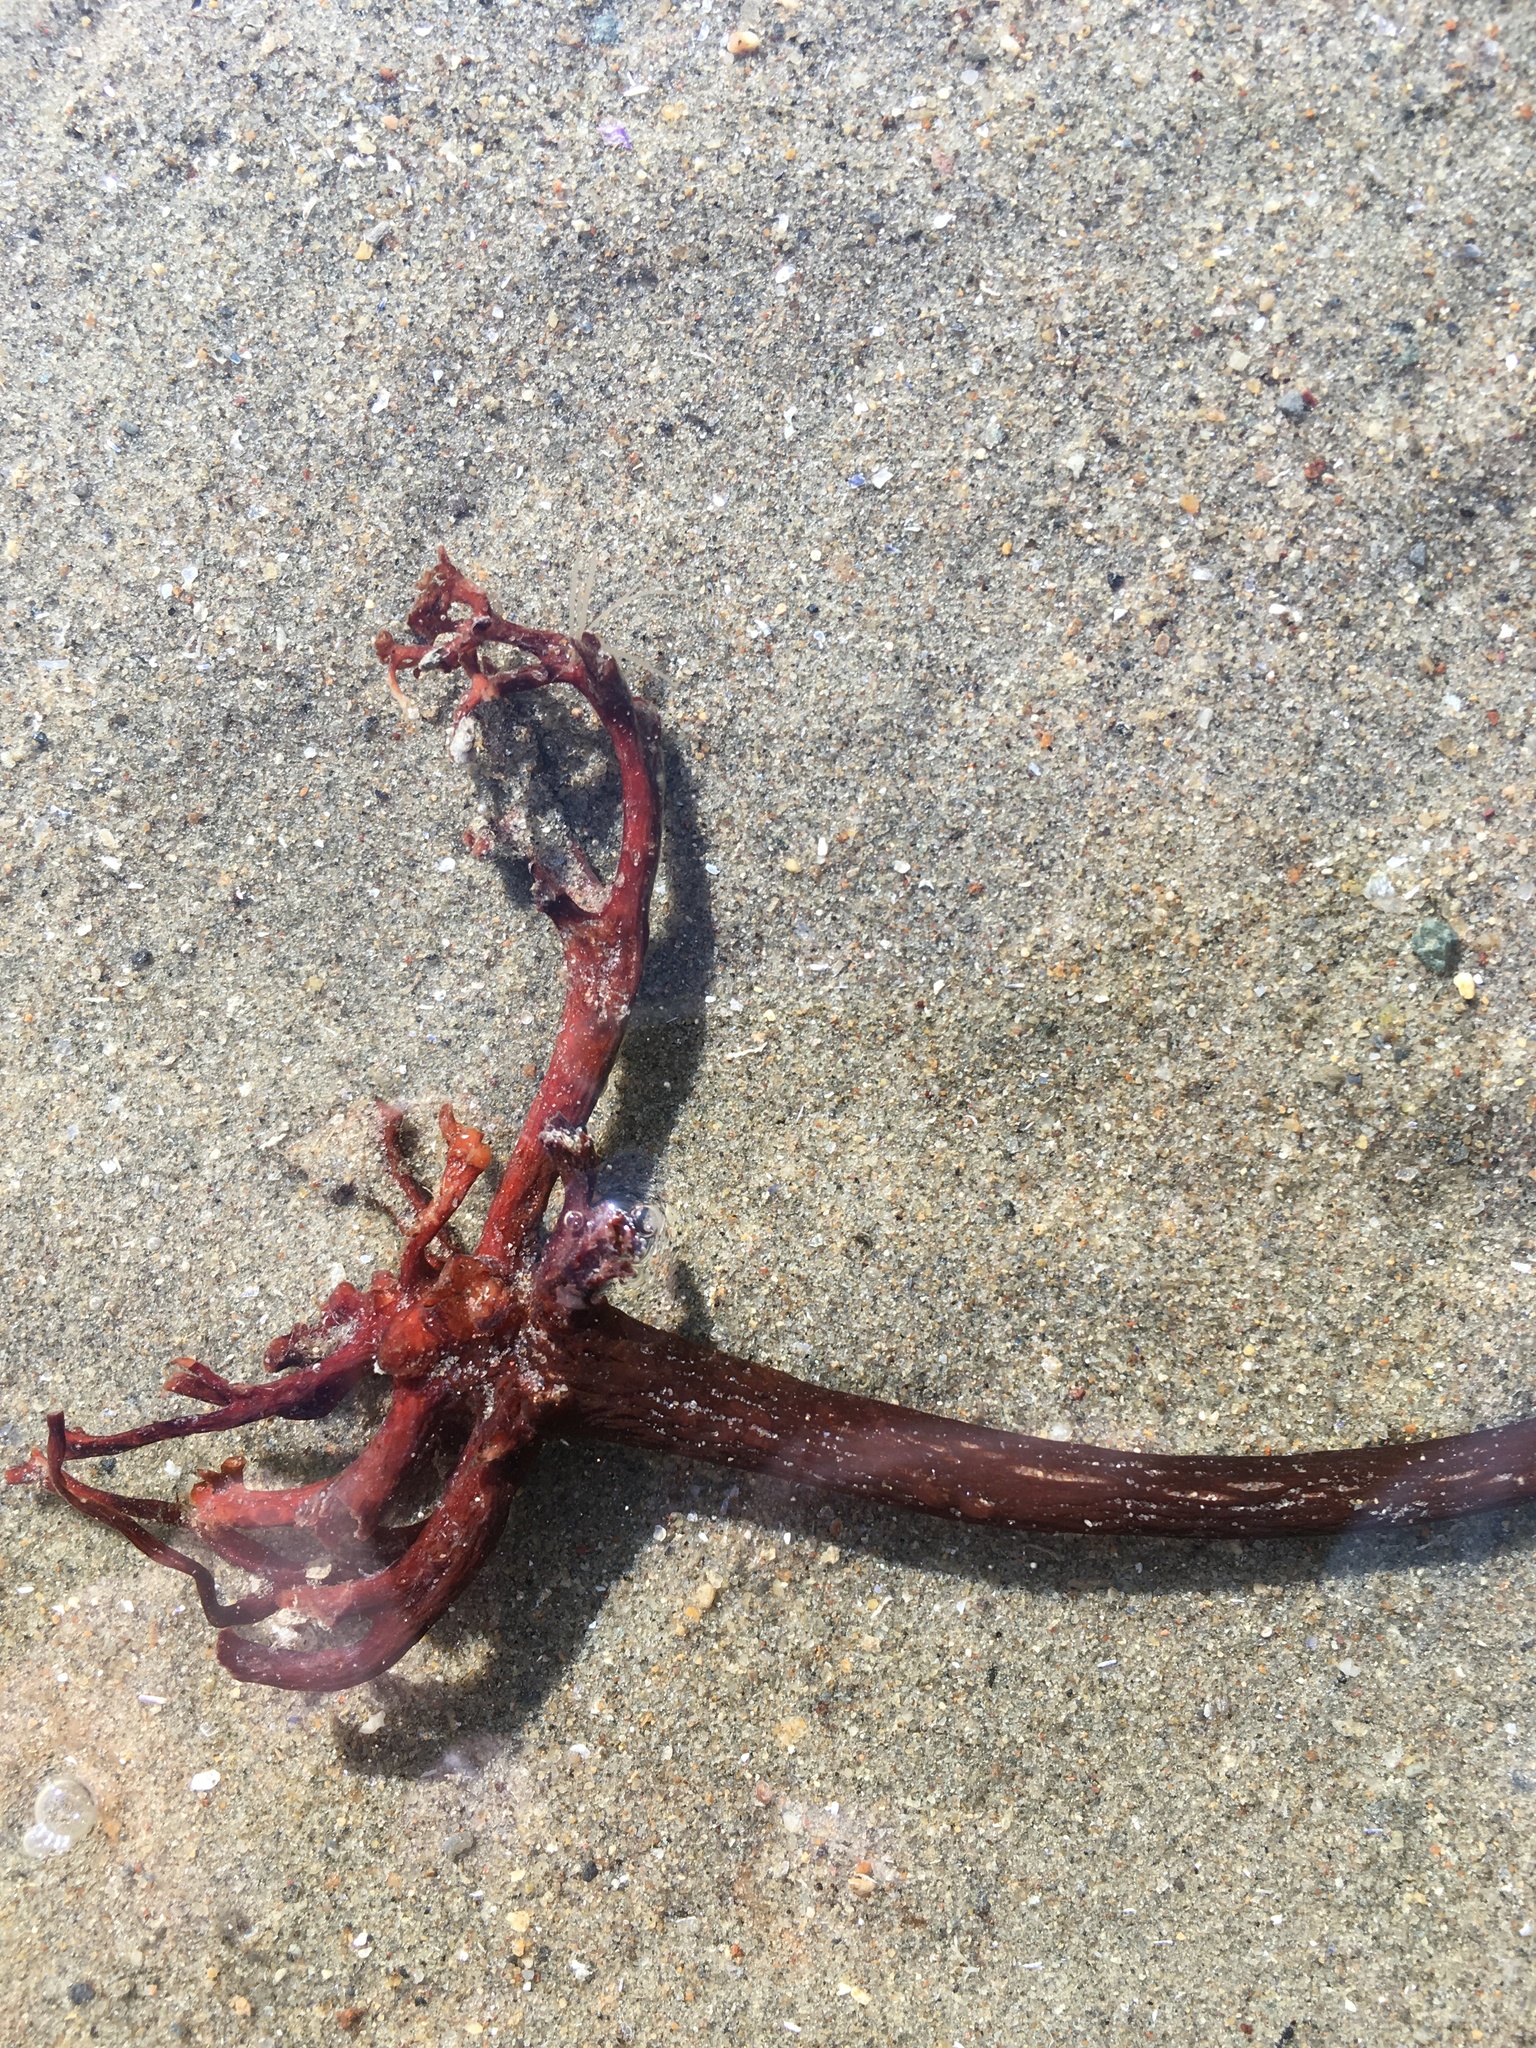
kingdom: Chromista
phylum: Ochrophyta
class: Phaeophyceae
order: Laminariales
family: Laminariaceae
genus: Saccharina
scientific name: Saccharina latissima
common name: Poor man's weather glass
